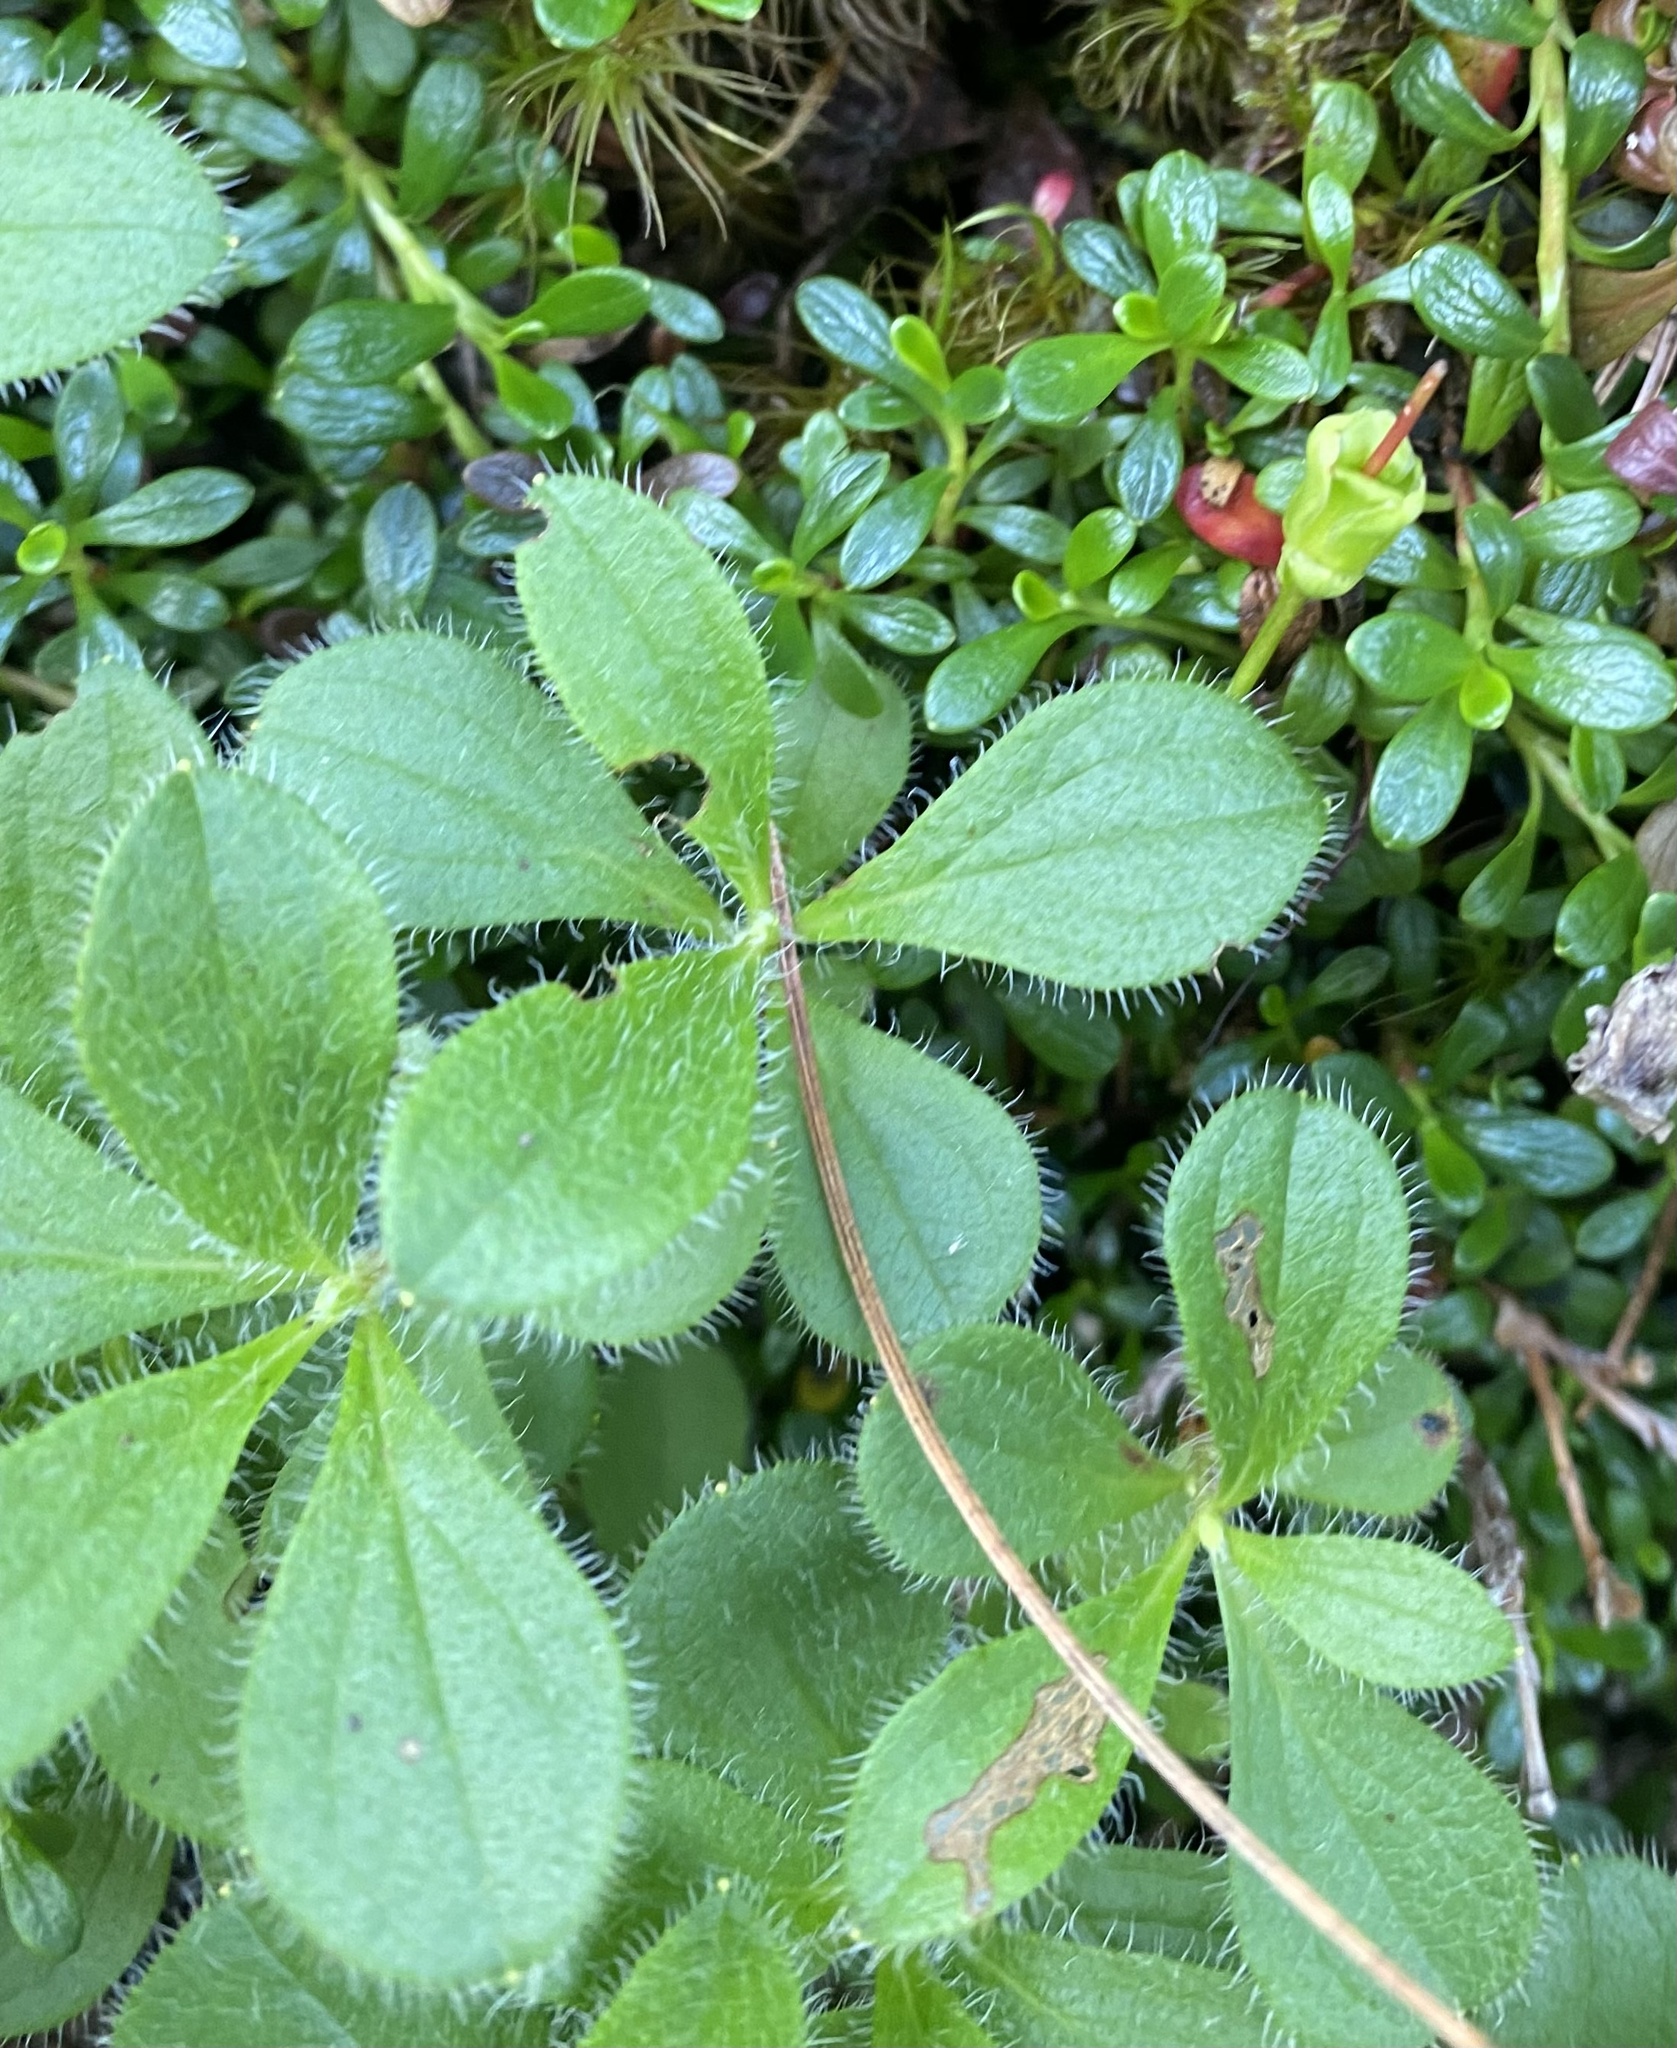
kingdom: Plantae
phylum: Tracheophyta
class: Magnoliopsida
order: Ericales
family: Ericaceae
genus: Rhododendron
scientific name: Rhododendron camtschaticum
